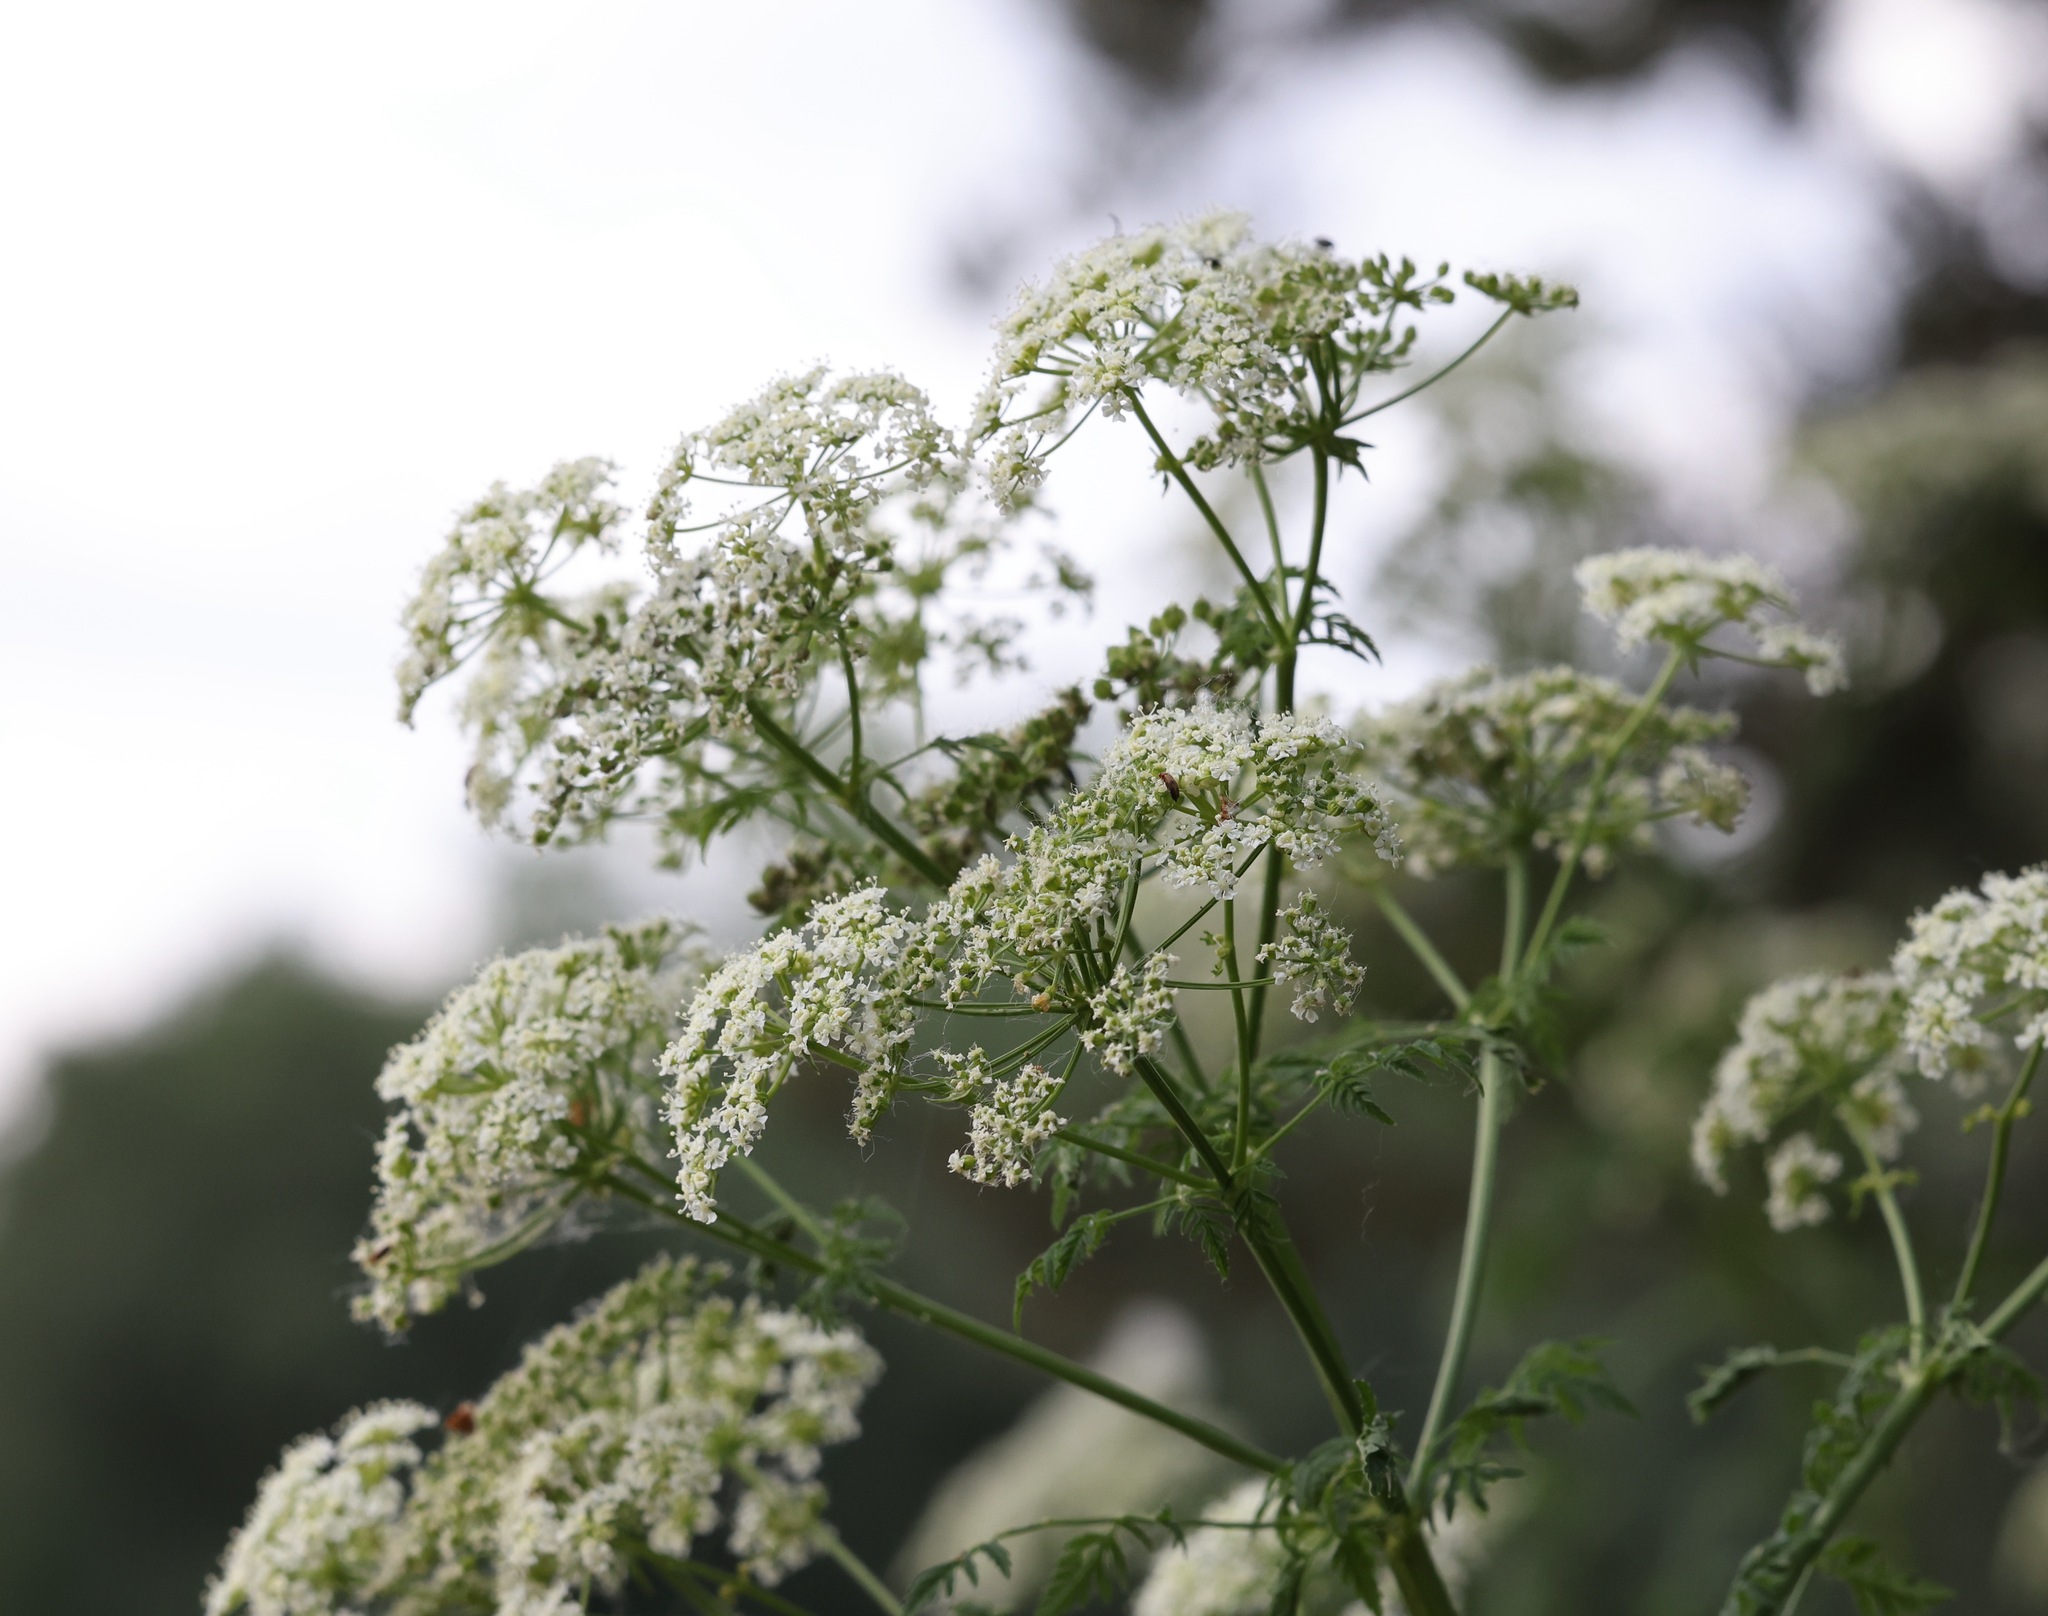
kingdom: Plantae
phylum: Tracheophyta
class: Magnoliopsida
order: Apiales
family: Apiaceae
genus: Conium
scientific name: Conium maculatum
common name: Hemlock
